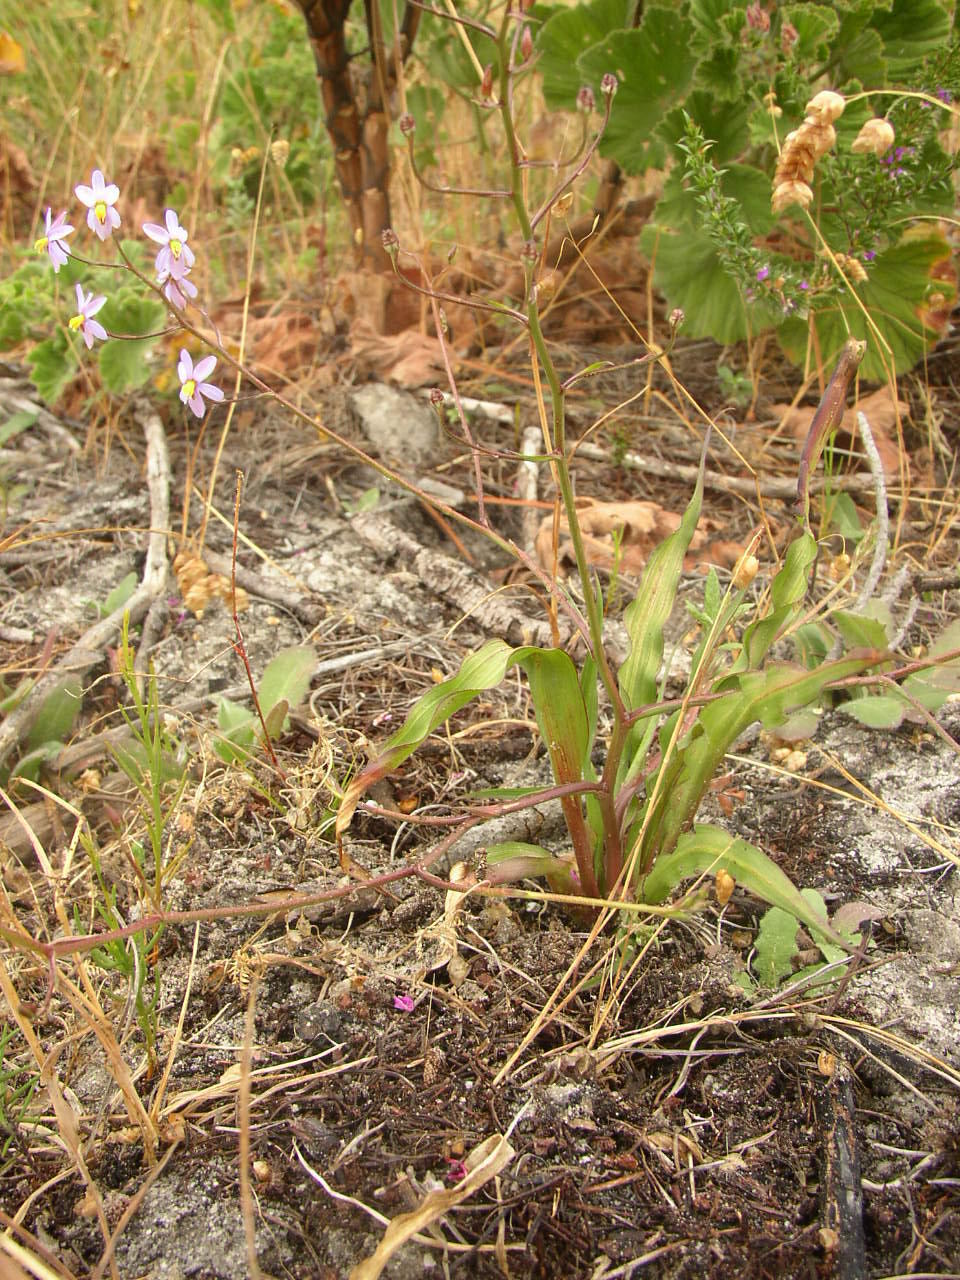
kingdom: Plantae
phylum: Tracheophyta
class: Liliopsida
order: Asparagales
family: Tecophilaeaceae
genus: Cyanella
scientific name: Cyanella hyacinthoides
